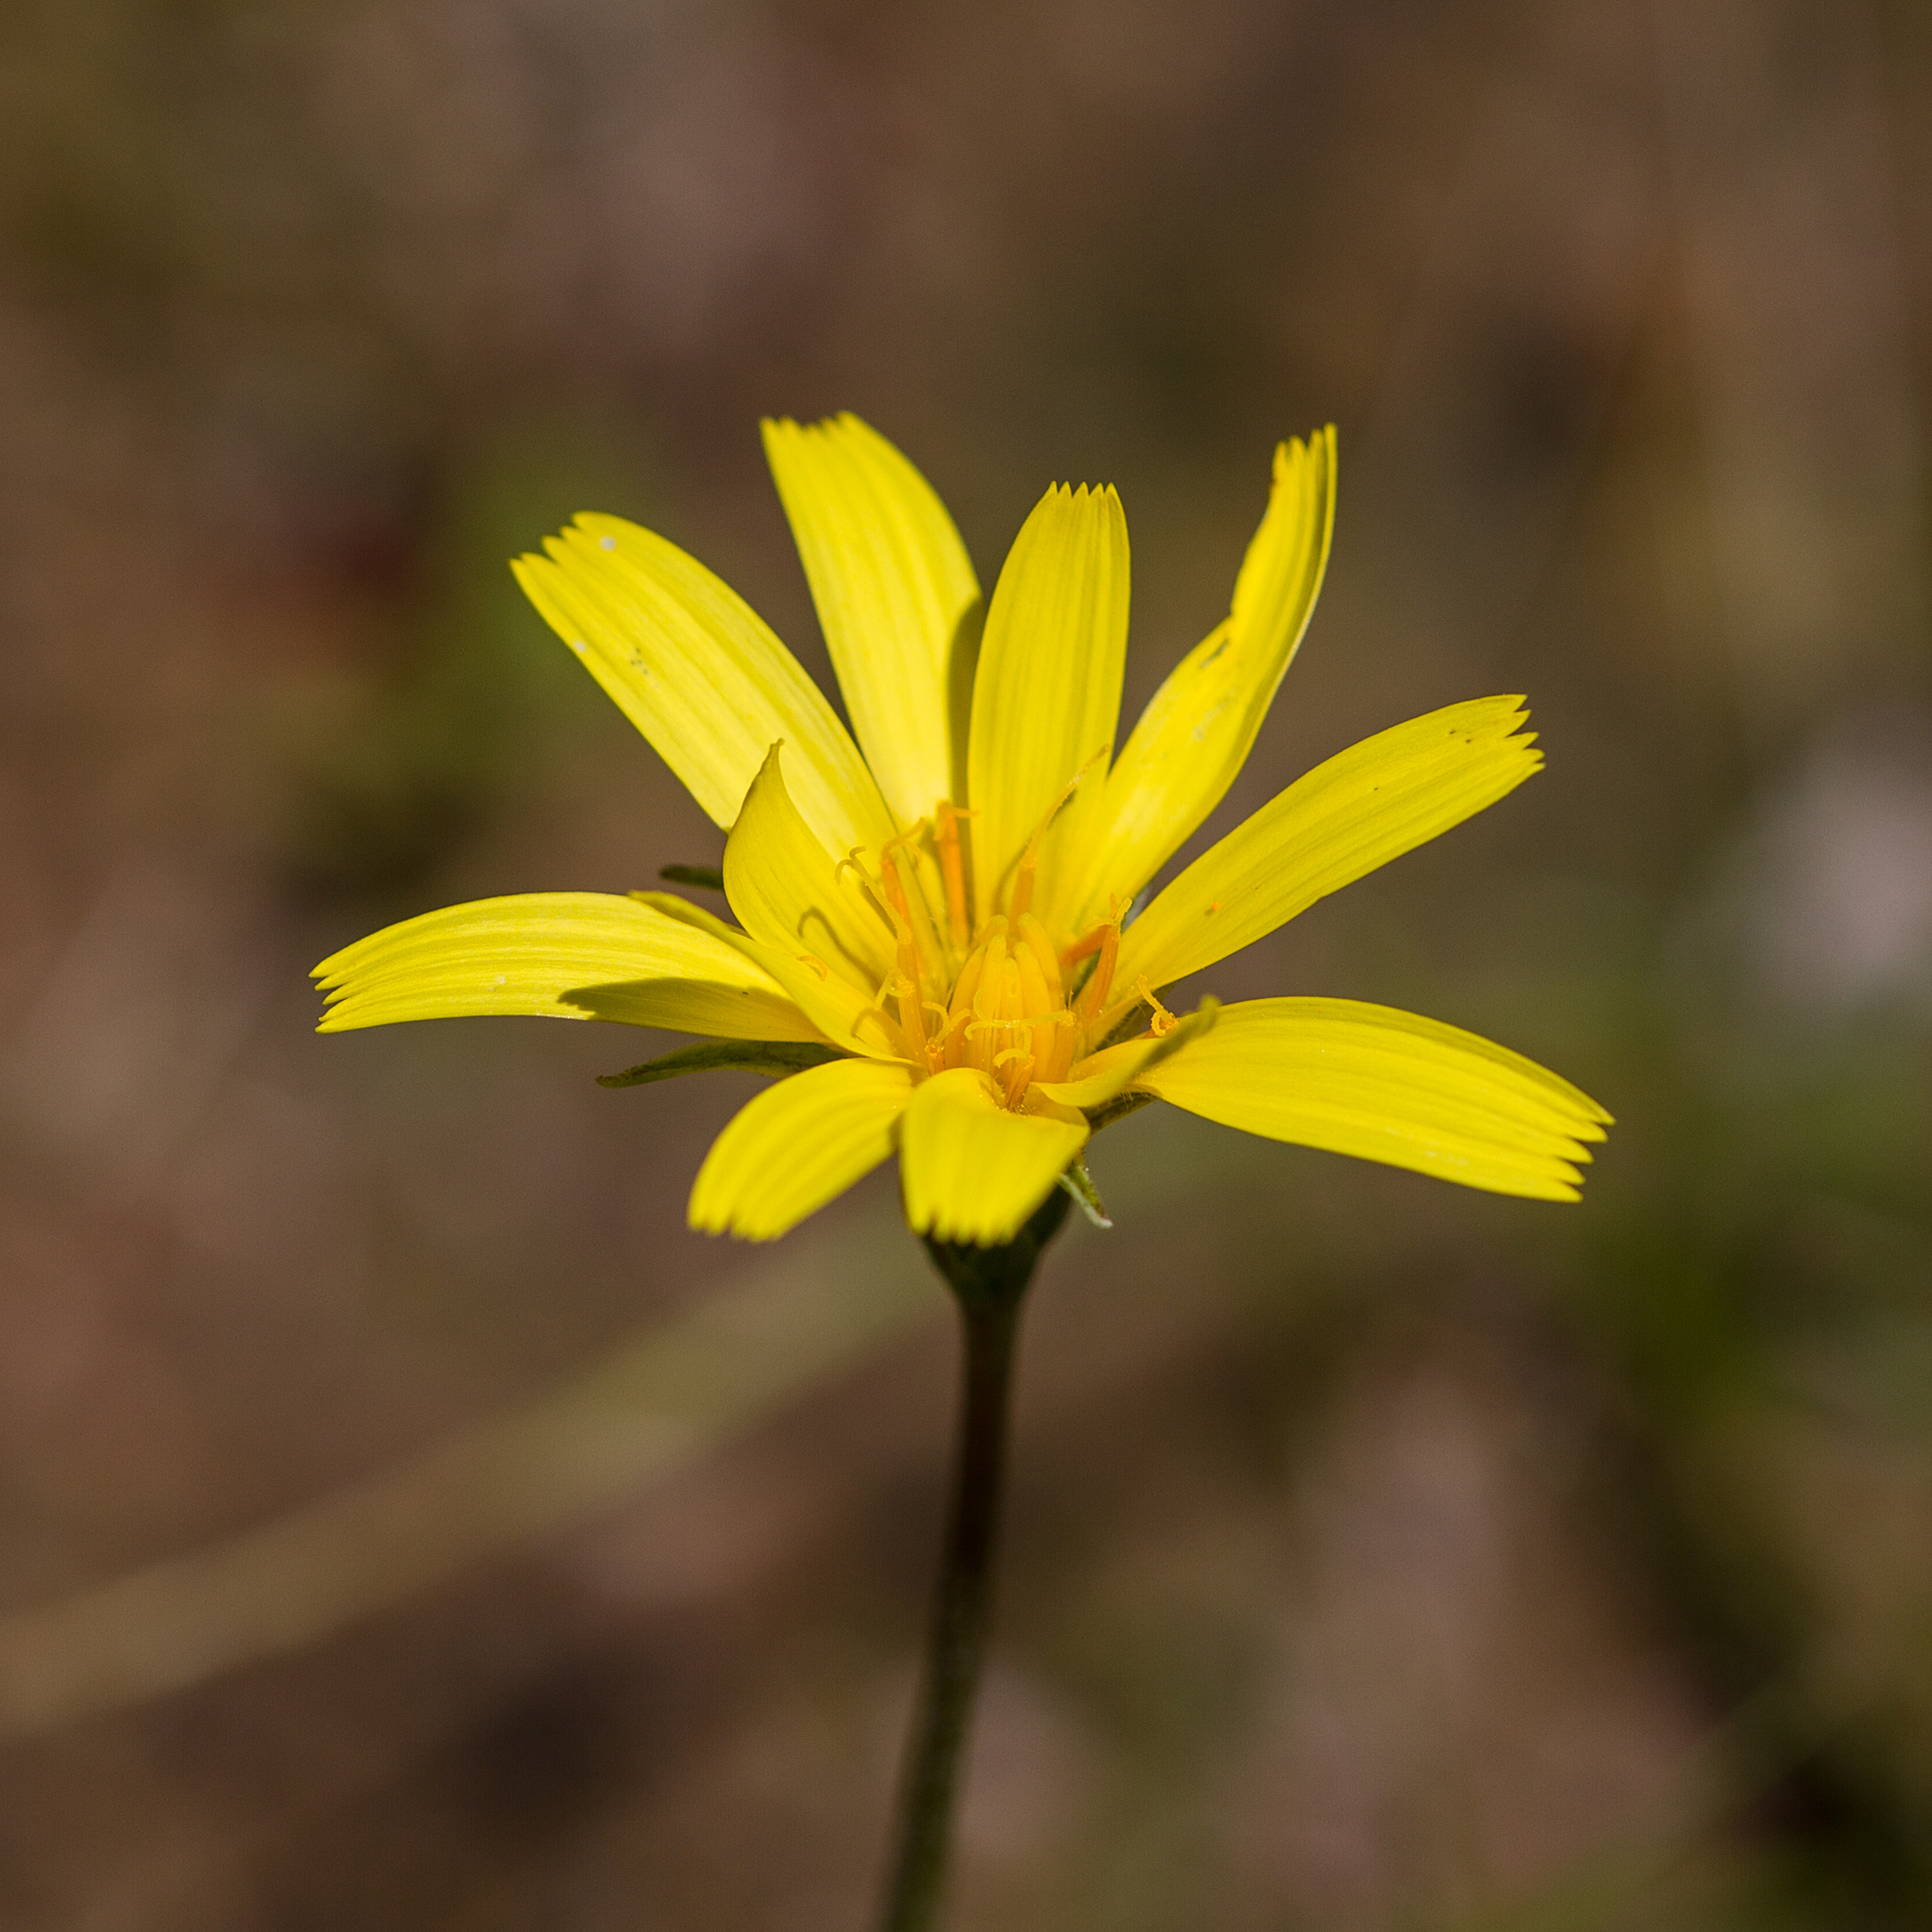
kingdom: Plantae
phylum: Tracheophyta
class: Magnoliopsida
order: Asterales
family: Asteraceae
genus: Microseris
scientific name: Microseris lanceolata
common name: Yam daisy
